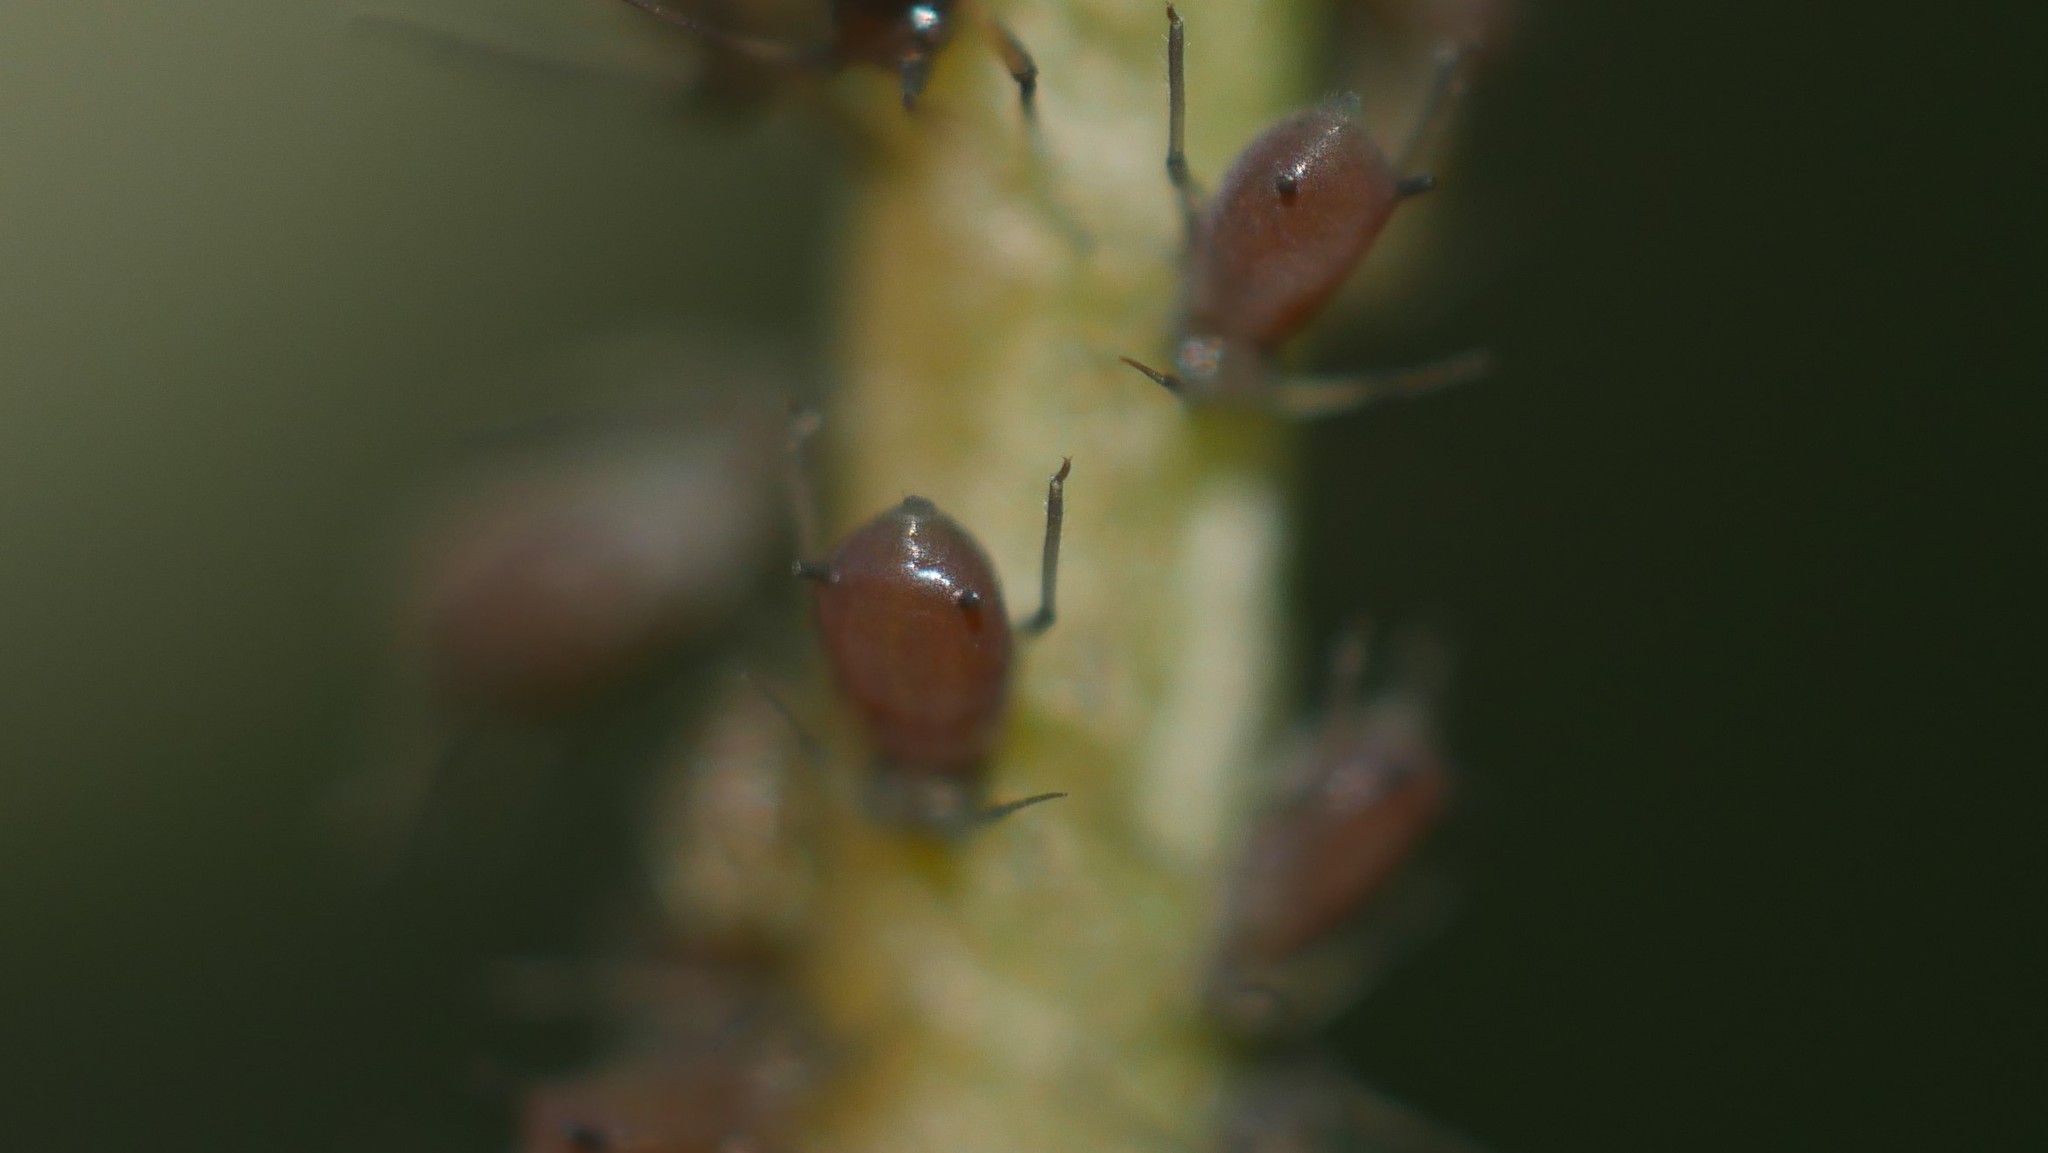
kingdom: Animalia
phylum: Arthropoda
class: Insecta
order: Hemiptera
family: Aphididae
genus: Aphis
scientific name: Aphis illinoisensis
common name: Grapevine aphid
